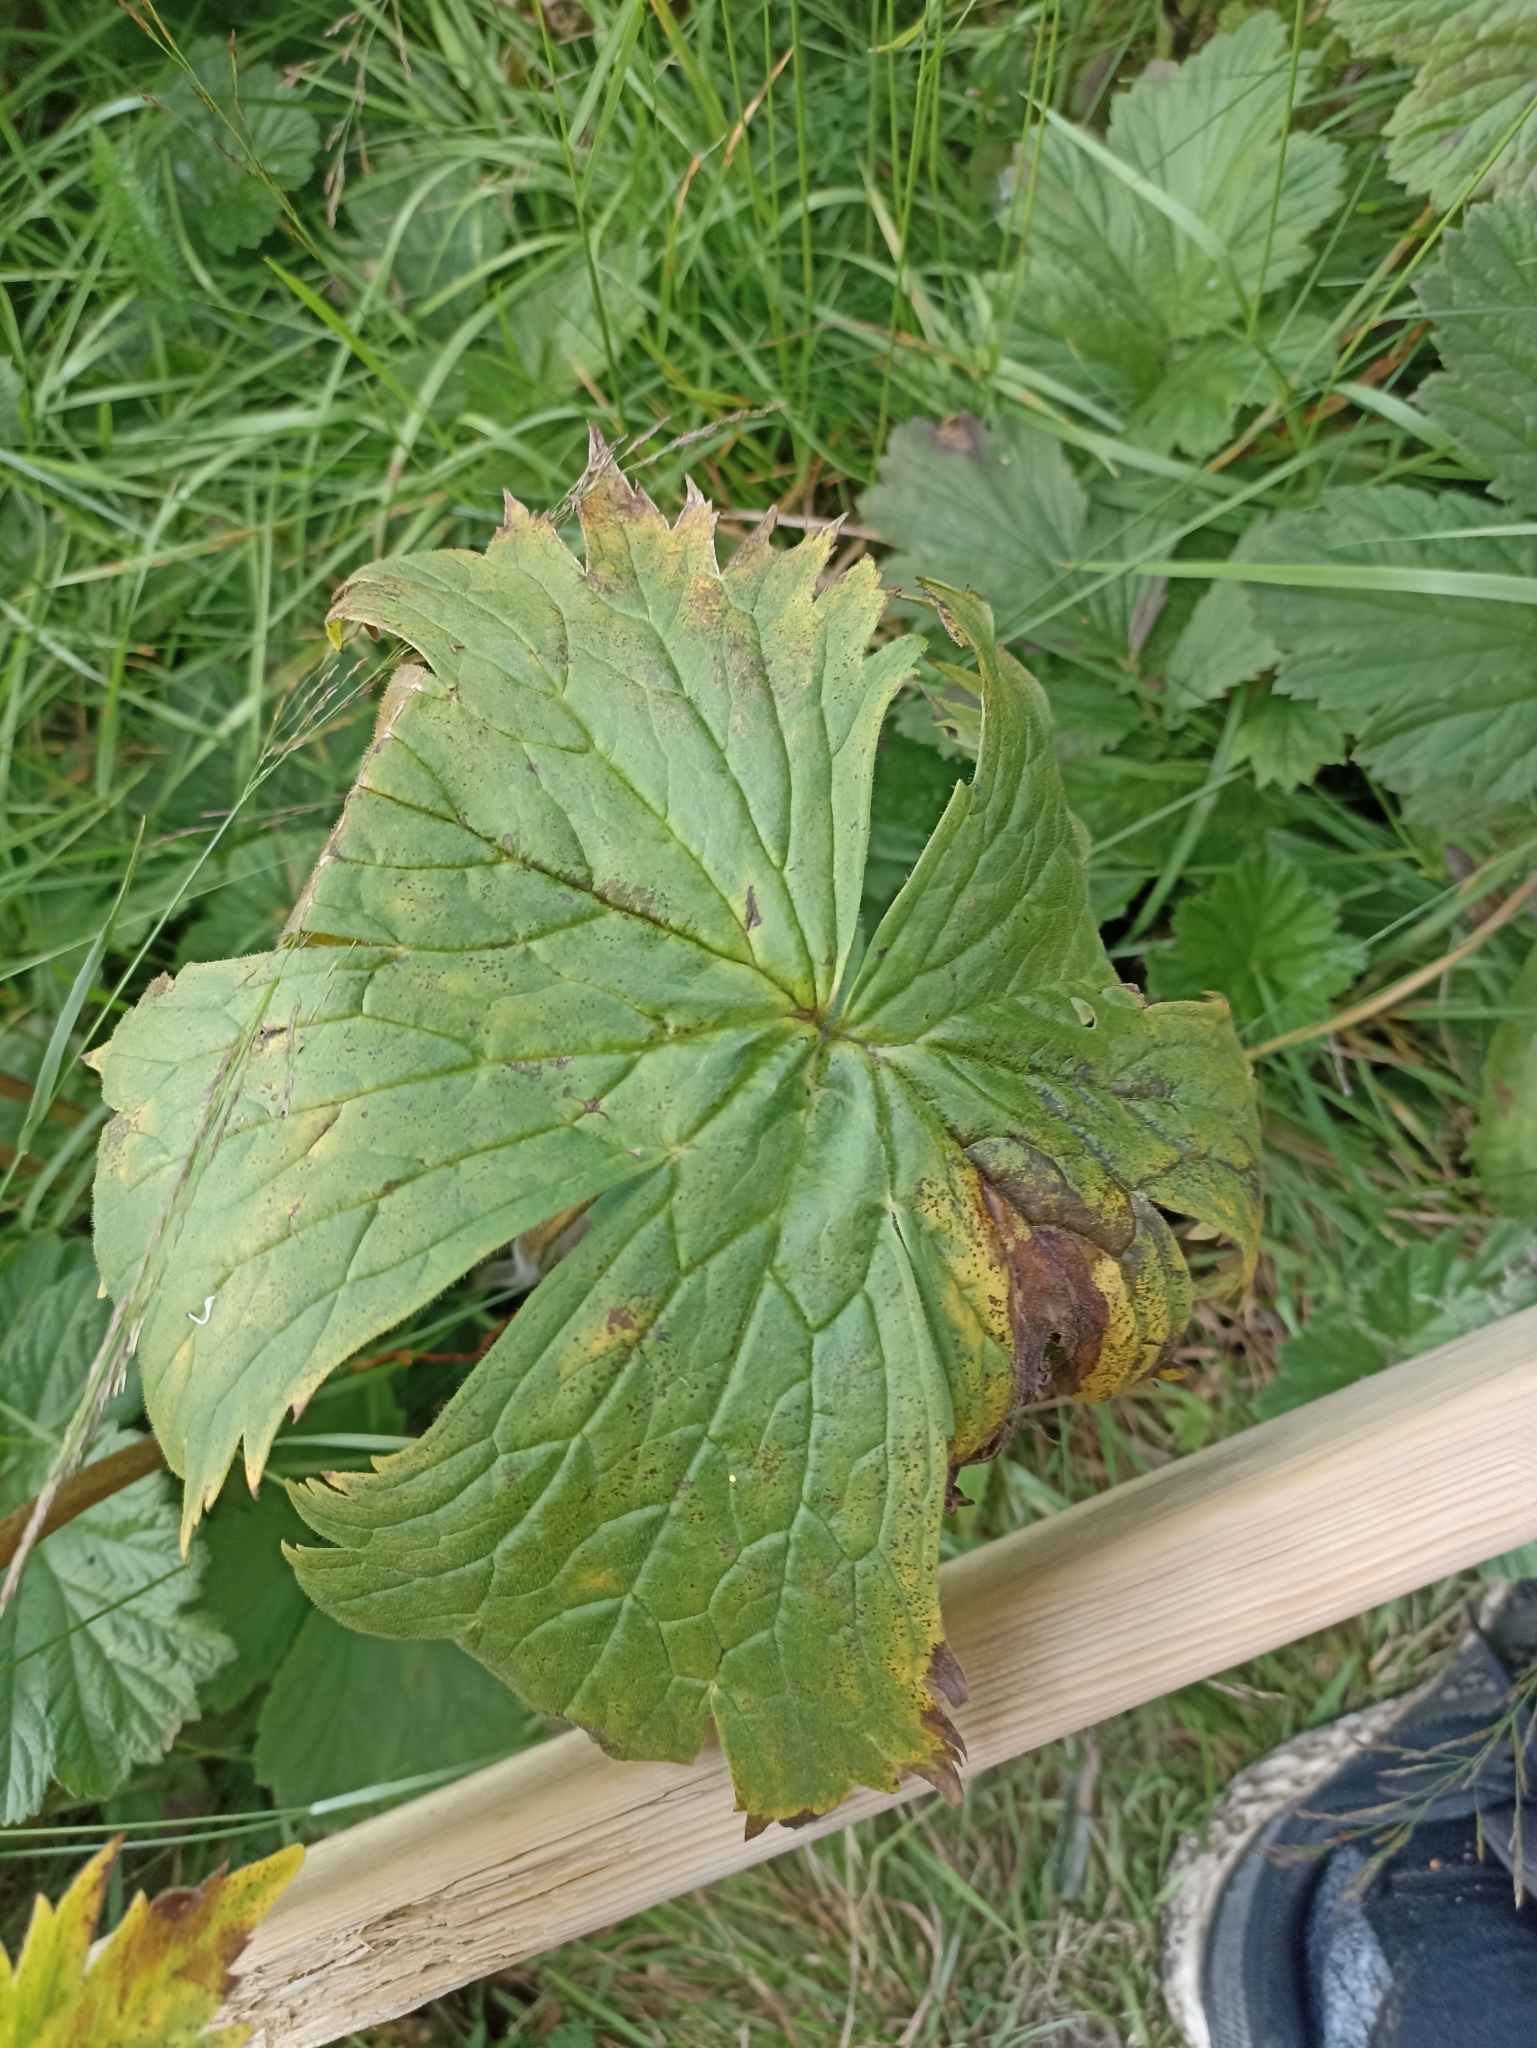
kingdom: Plantae
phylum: Tracheophyta
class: Magnoliopsida
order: Ranunculales
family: Ranunculaceae
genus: Aconitum
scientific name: Aconitum septentrionale
